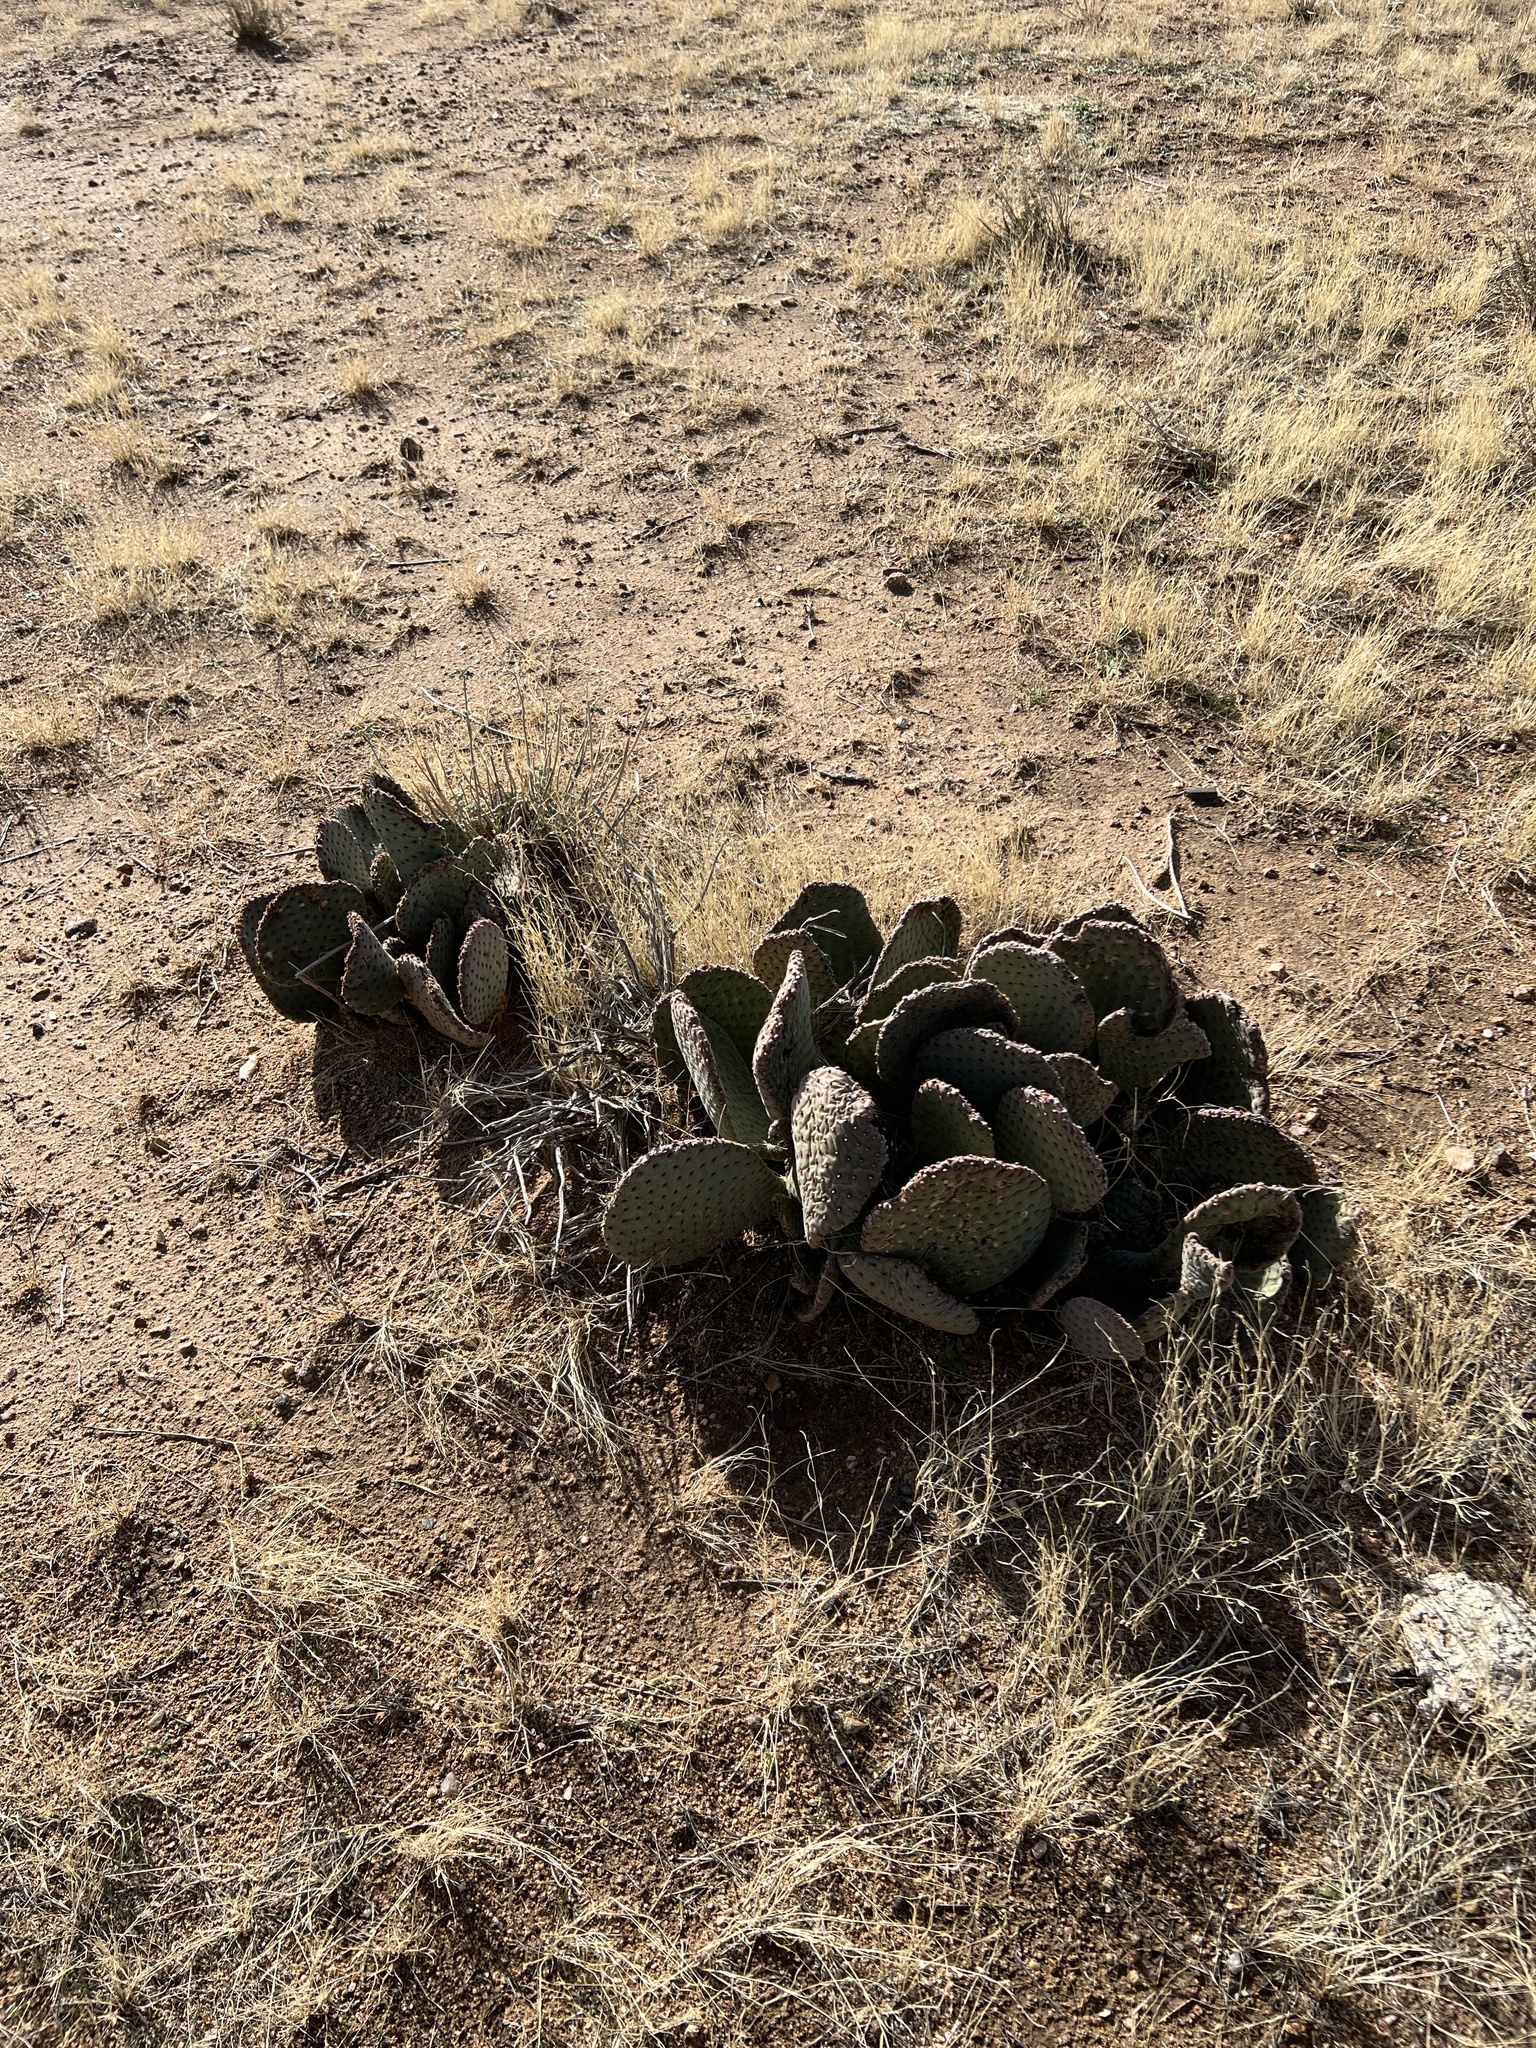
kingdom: Plantae
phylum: Tracheophyta
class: Magnoliopsida
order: Caryophyllales
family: Cactaceae
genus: Opuntia
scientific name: Opuntia basilaris
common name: Beavertail prickly-pear
